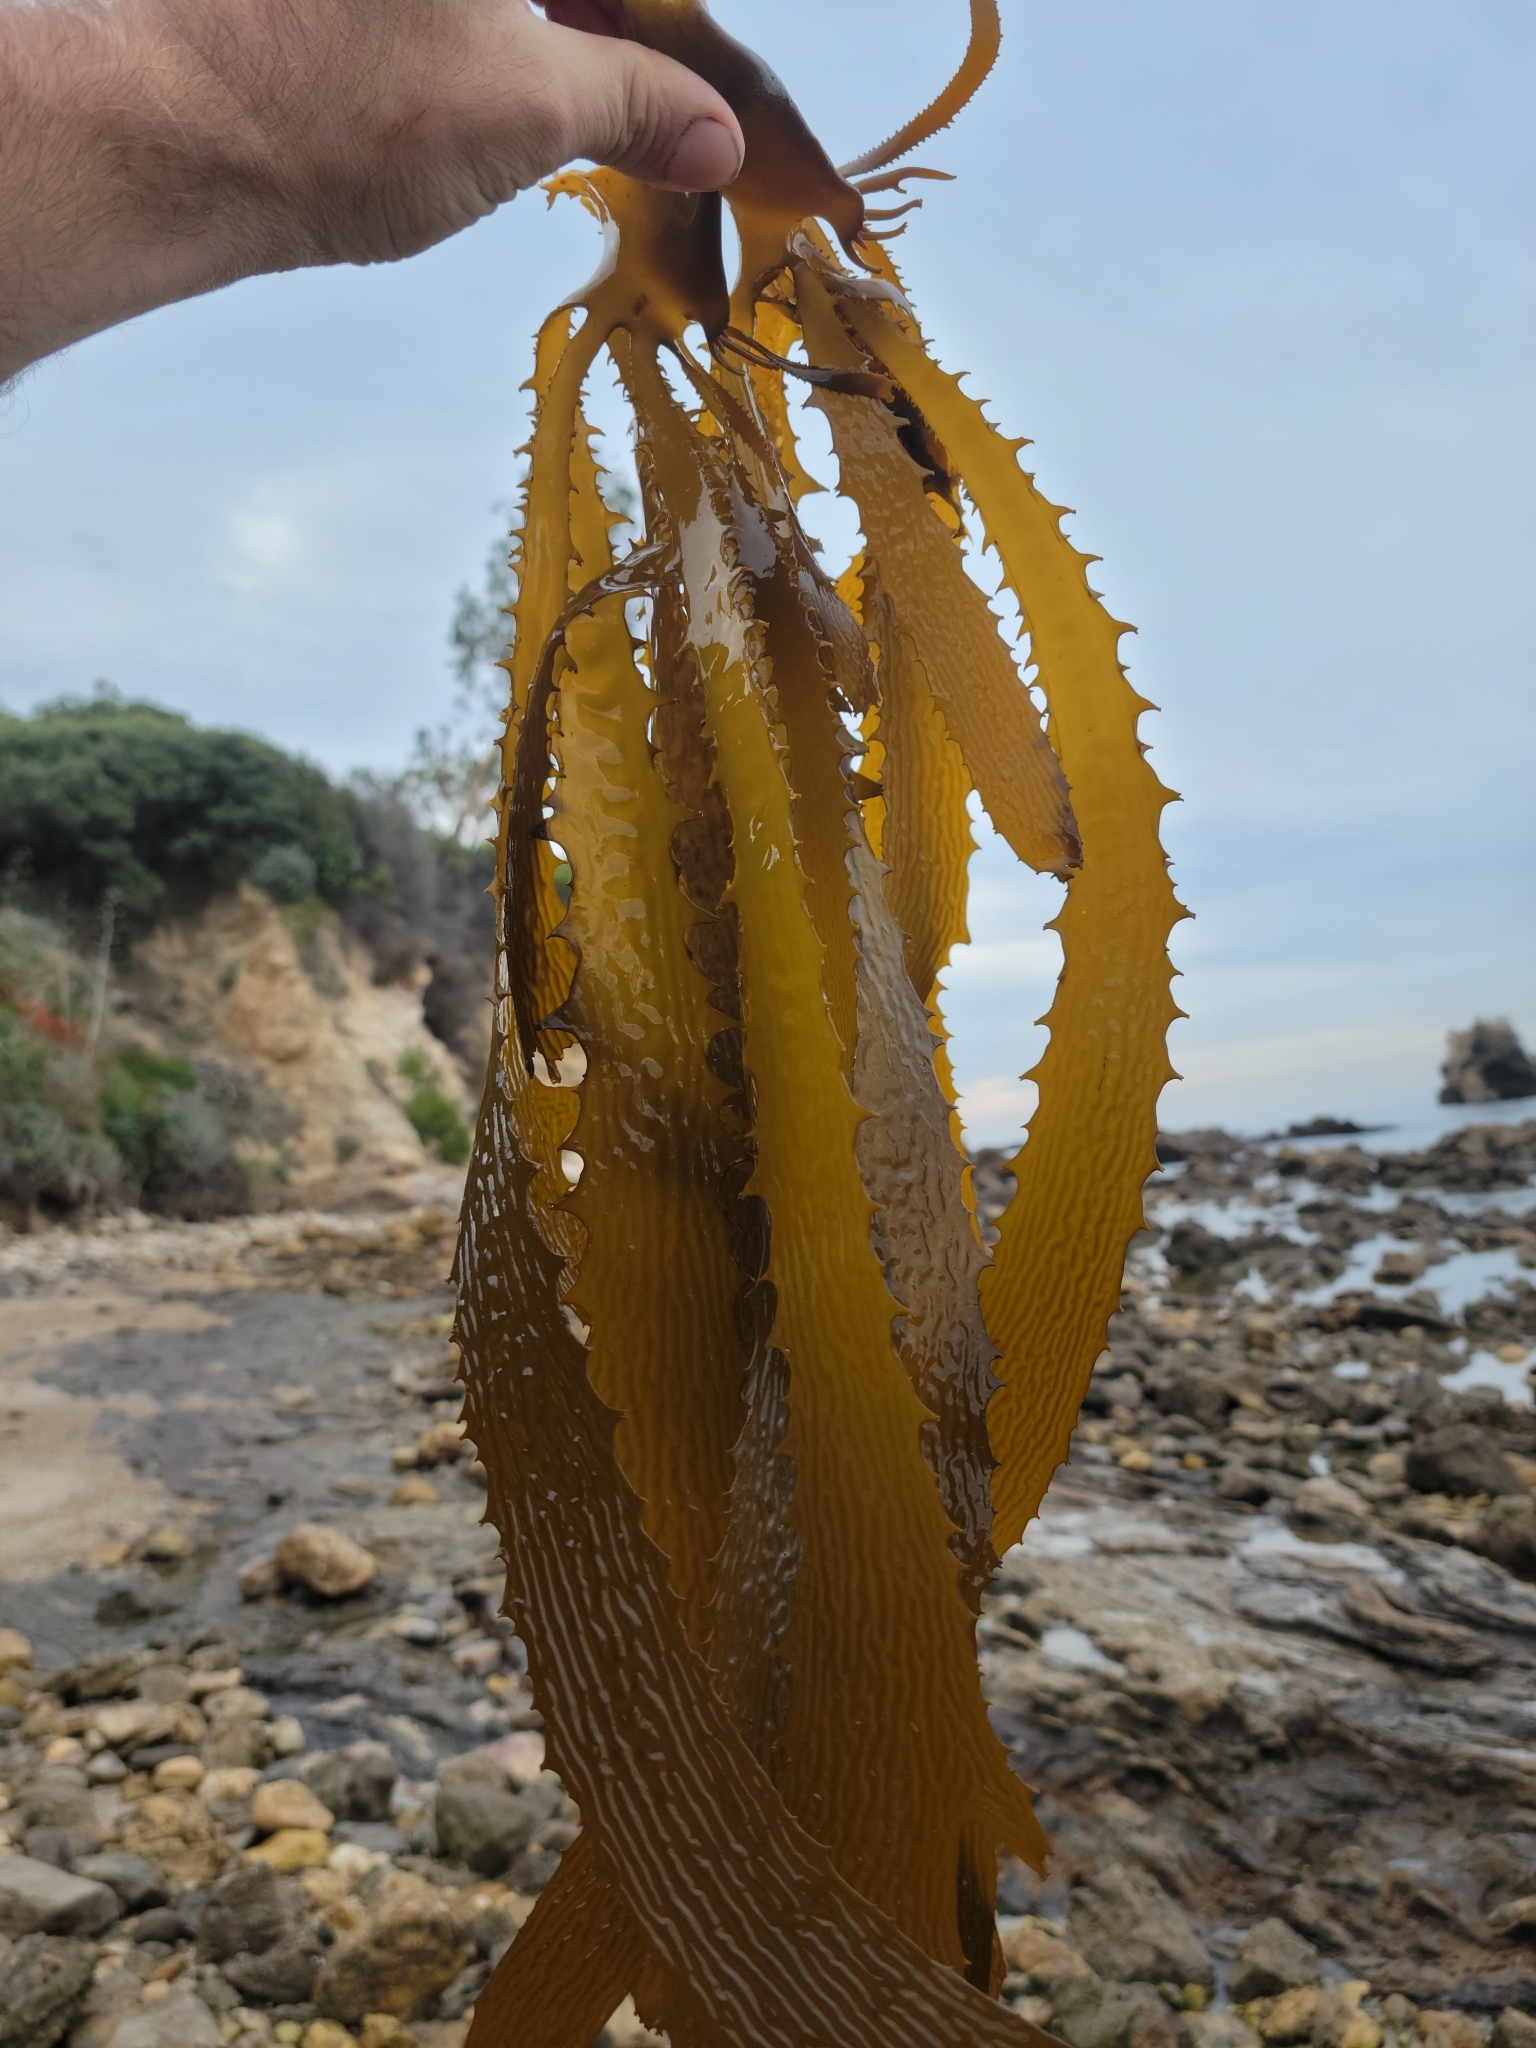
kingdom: Chromista
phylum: Ochrophyta
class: Phaeophyceae
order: Laminariales
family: Lessoniaceae
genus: Eisenia
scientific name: Eisenia arborea
